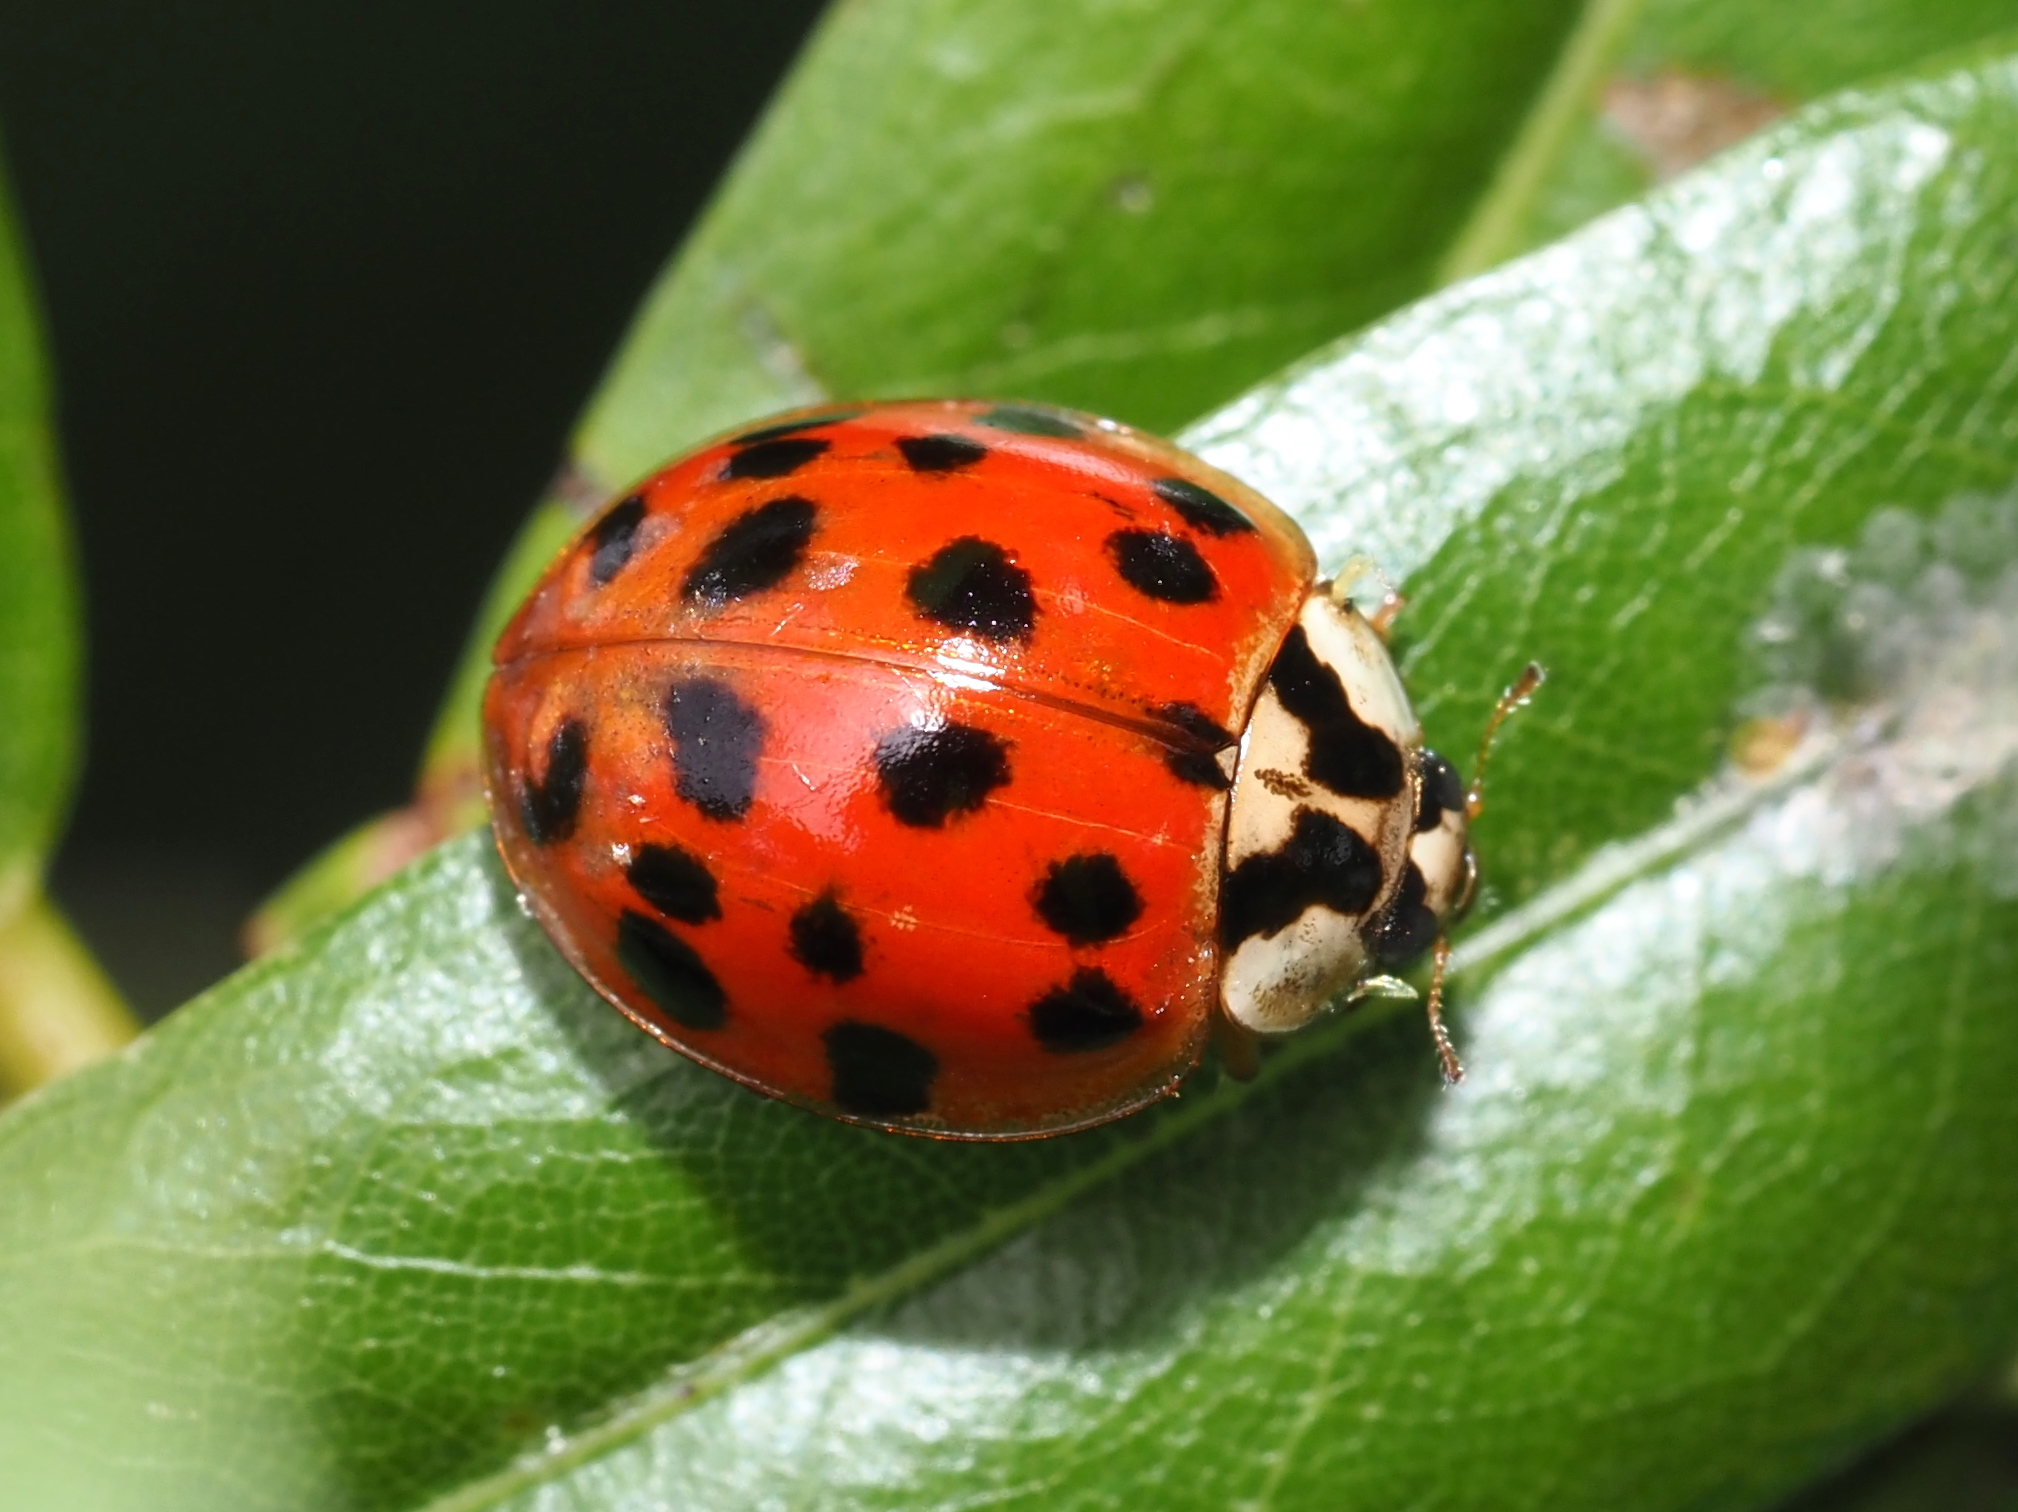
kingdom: Animalia
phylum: Arthropoda
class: Insecta
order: Coleoptera
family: Coccinellidae
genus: Harmonia
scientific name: Harmonia axyridis
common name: Harlequin ladybird
